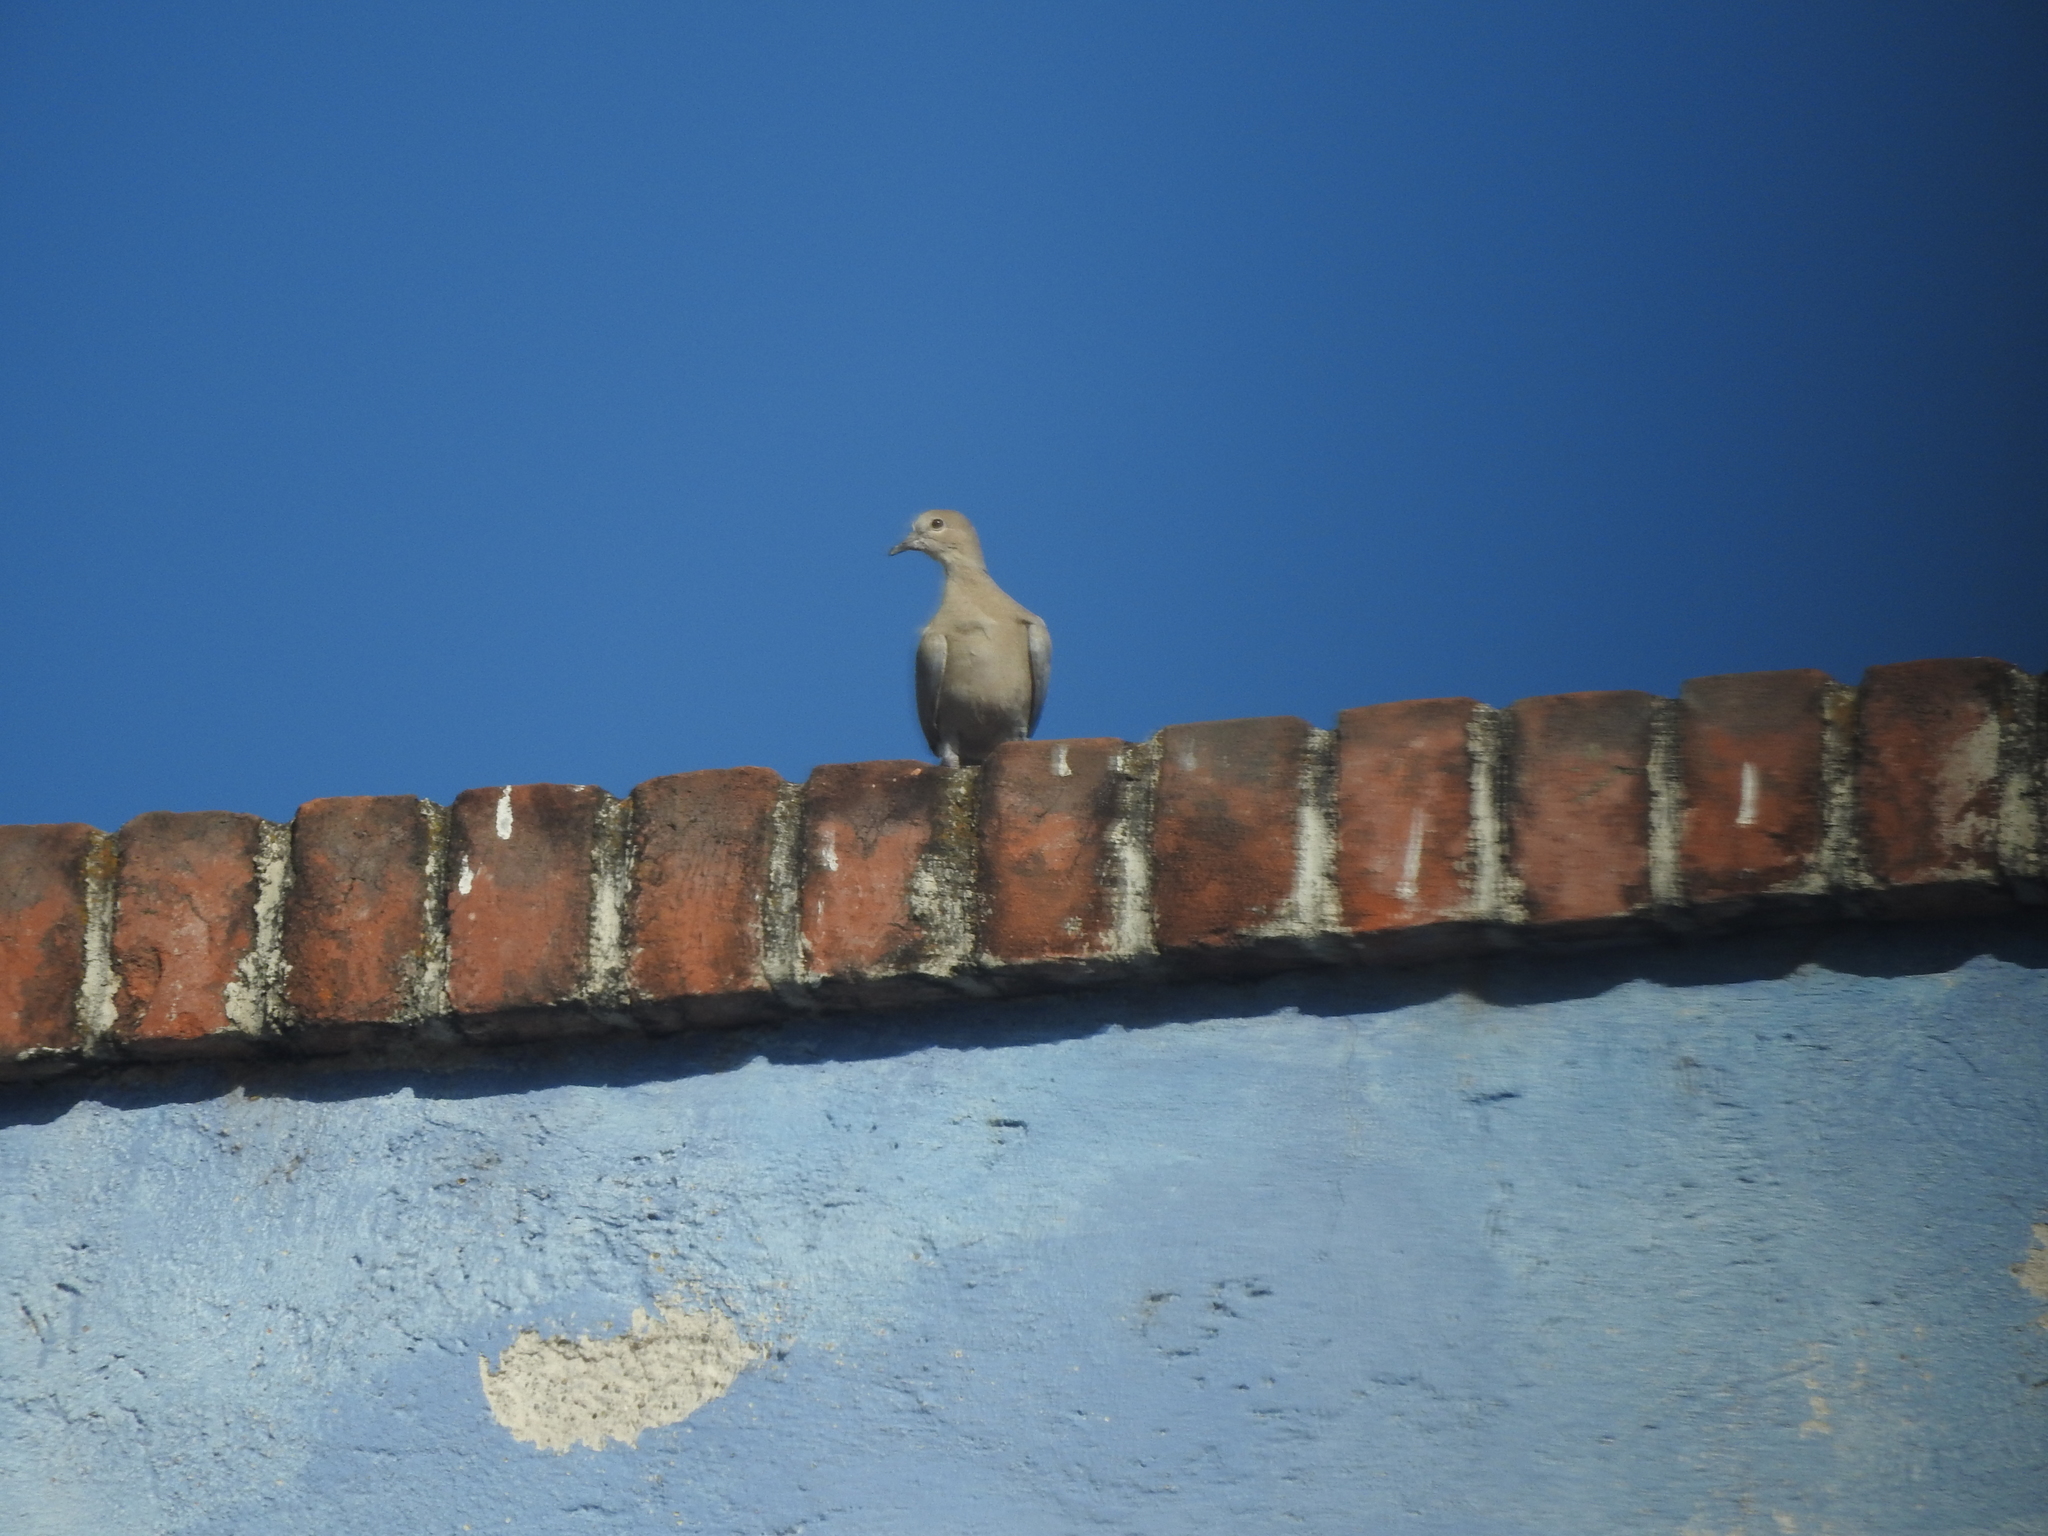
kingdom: Animalia
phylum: Chordata
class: Aves
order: Columbiformes
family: Columbidae
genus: Streptopelia
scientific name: Streptopelia decaocto
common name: Eurasian collared dove
